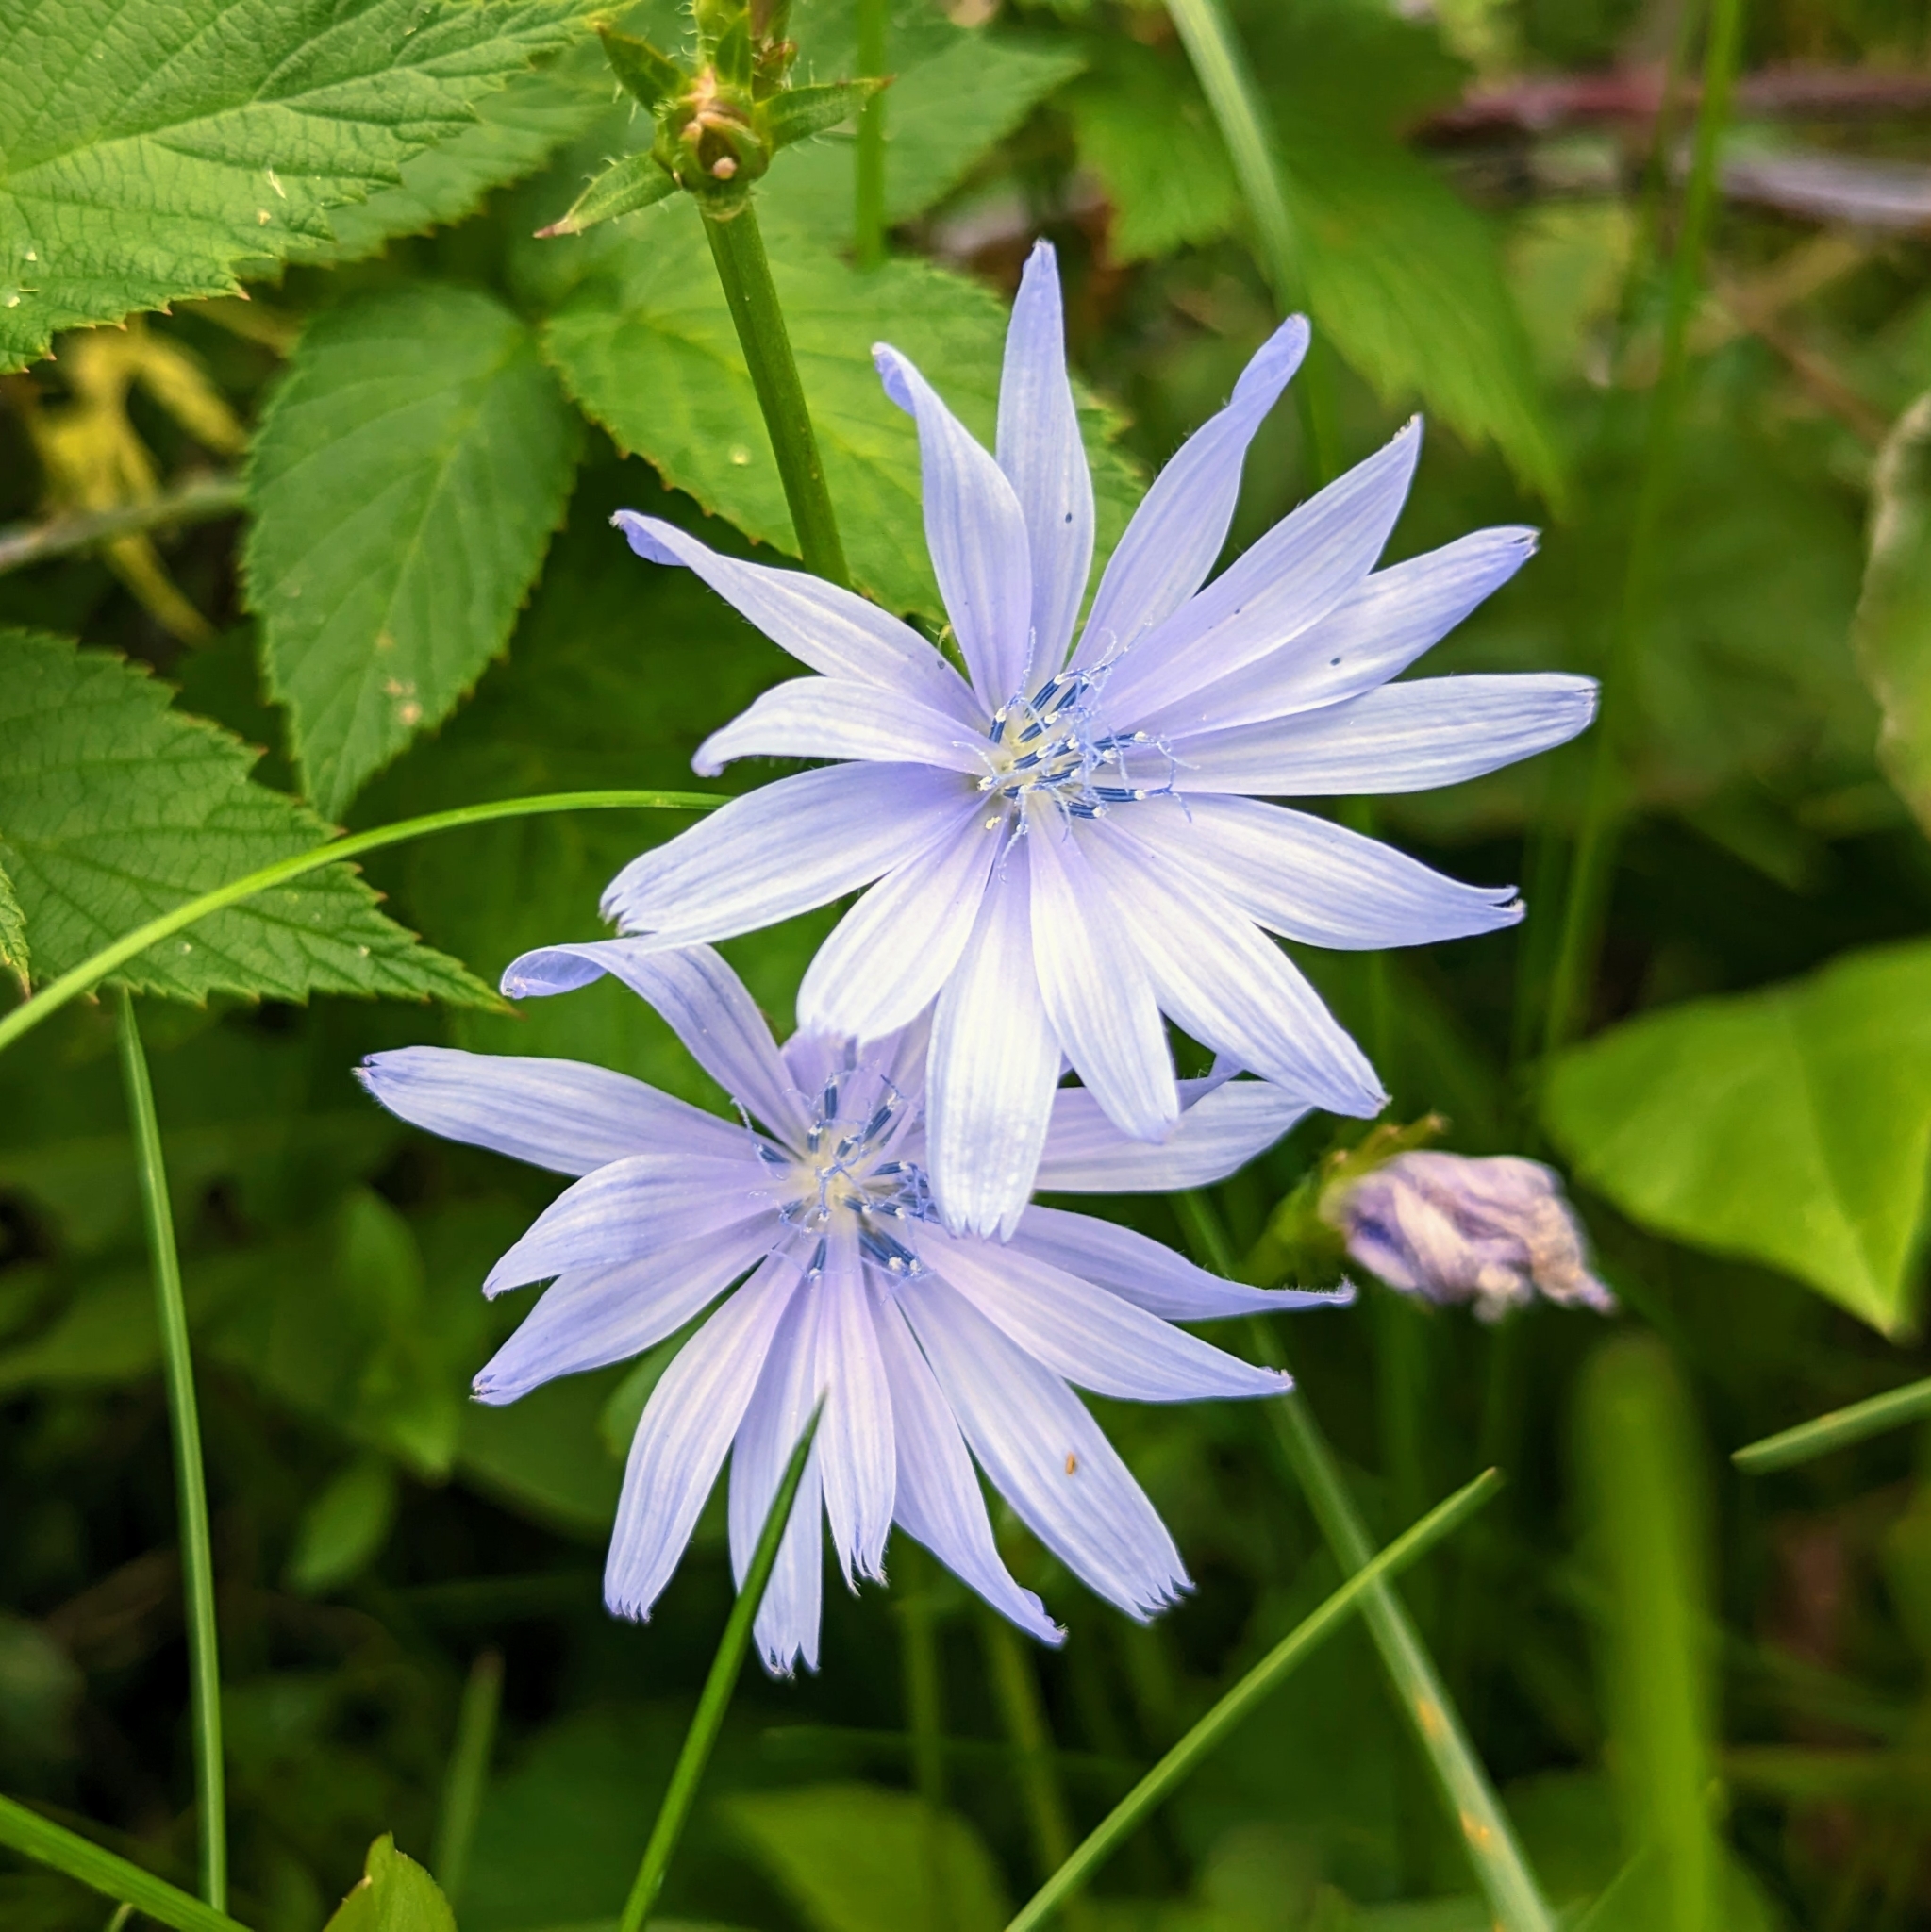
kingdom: Plantae
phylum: Tracheophyta
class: Magnoliopsida
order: Asterales
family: Asteraceae
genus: Cichorium
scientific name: Cichorium intybus
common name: Chicory
